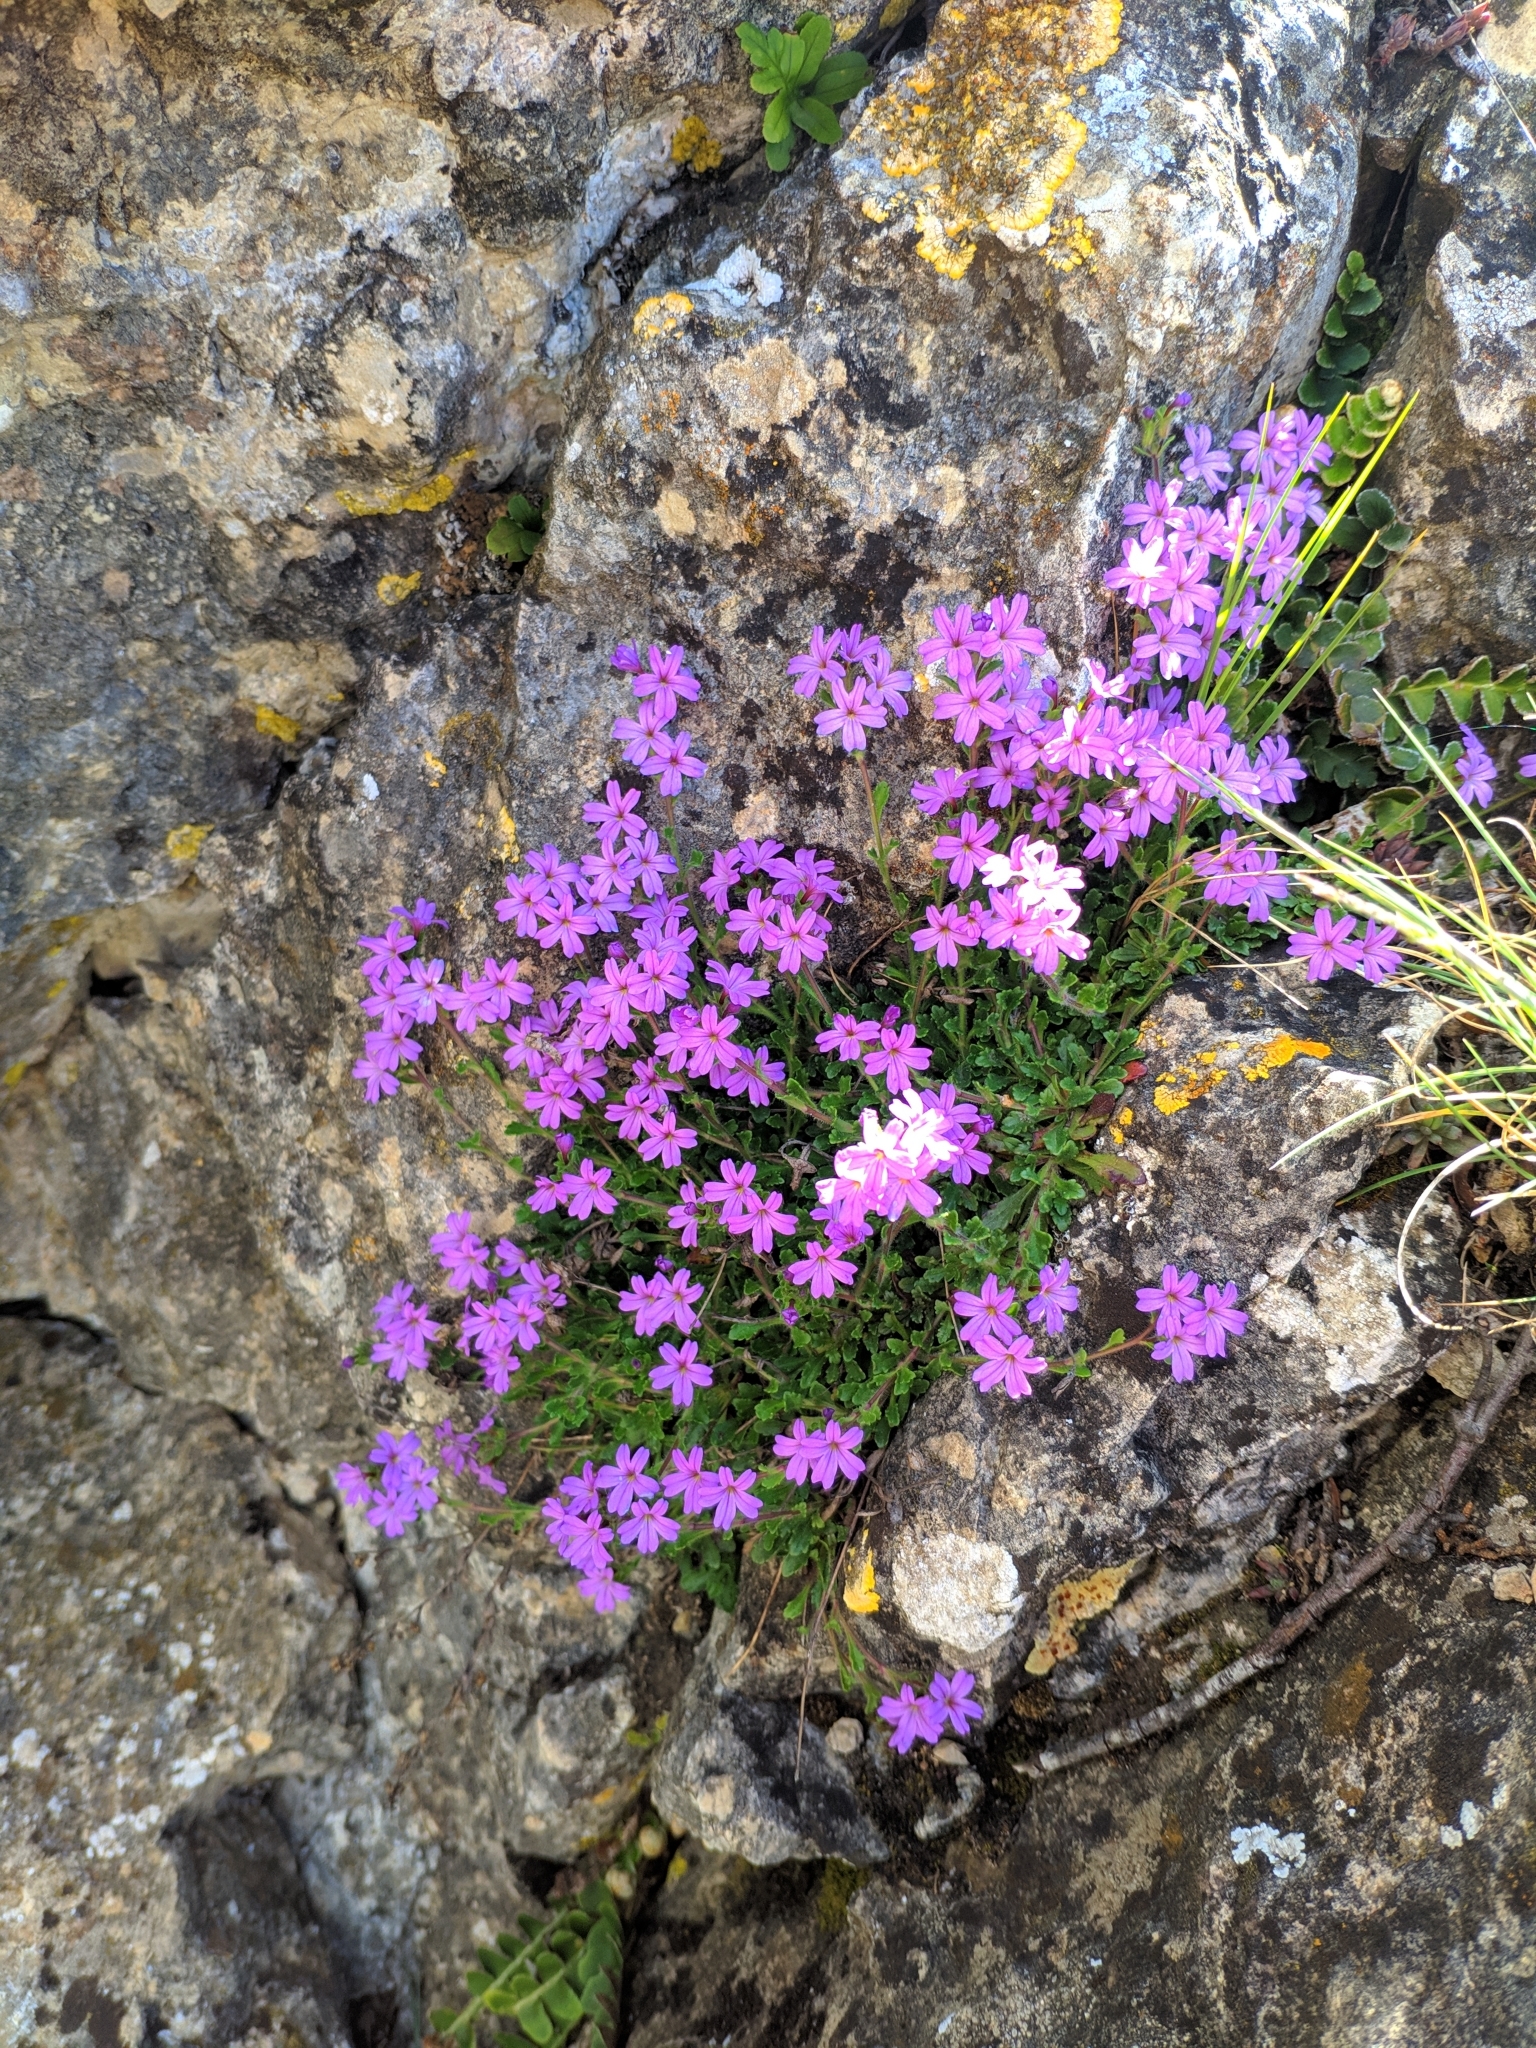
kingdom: Plantae
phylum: Tracheophyta
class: Magnoliopsida
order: Lamiales
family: Plantaginaceae
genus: Erinus
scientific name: Erinus alpinus
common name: Fairy foxglove
